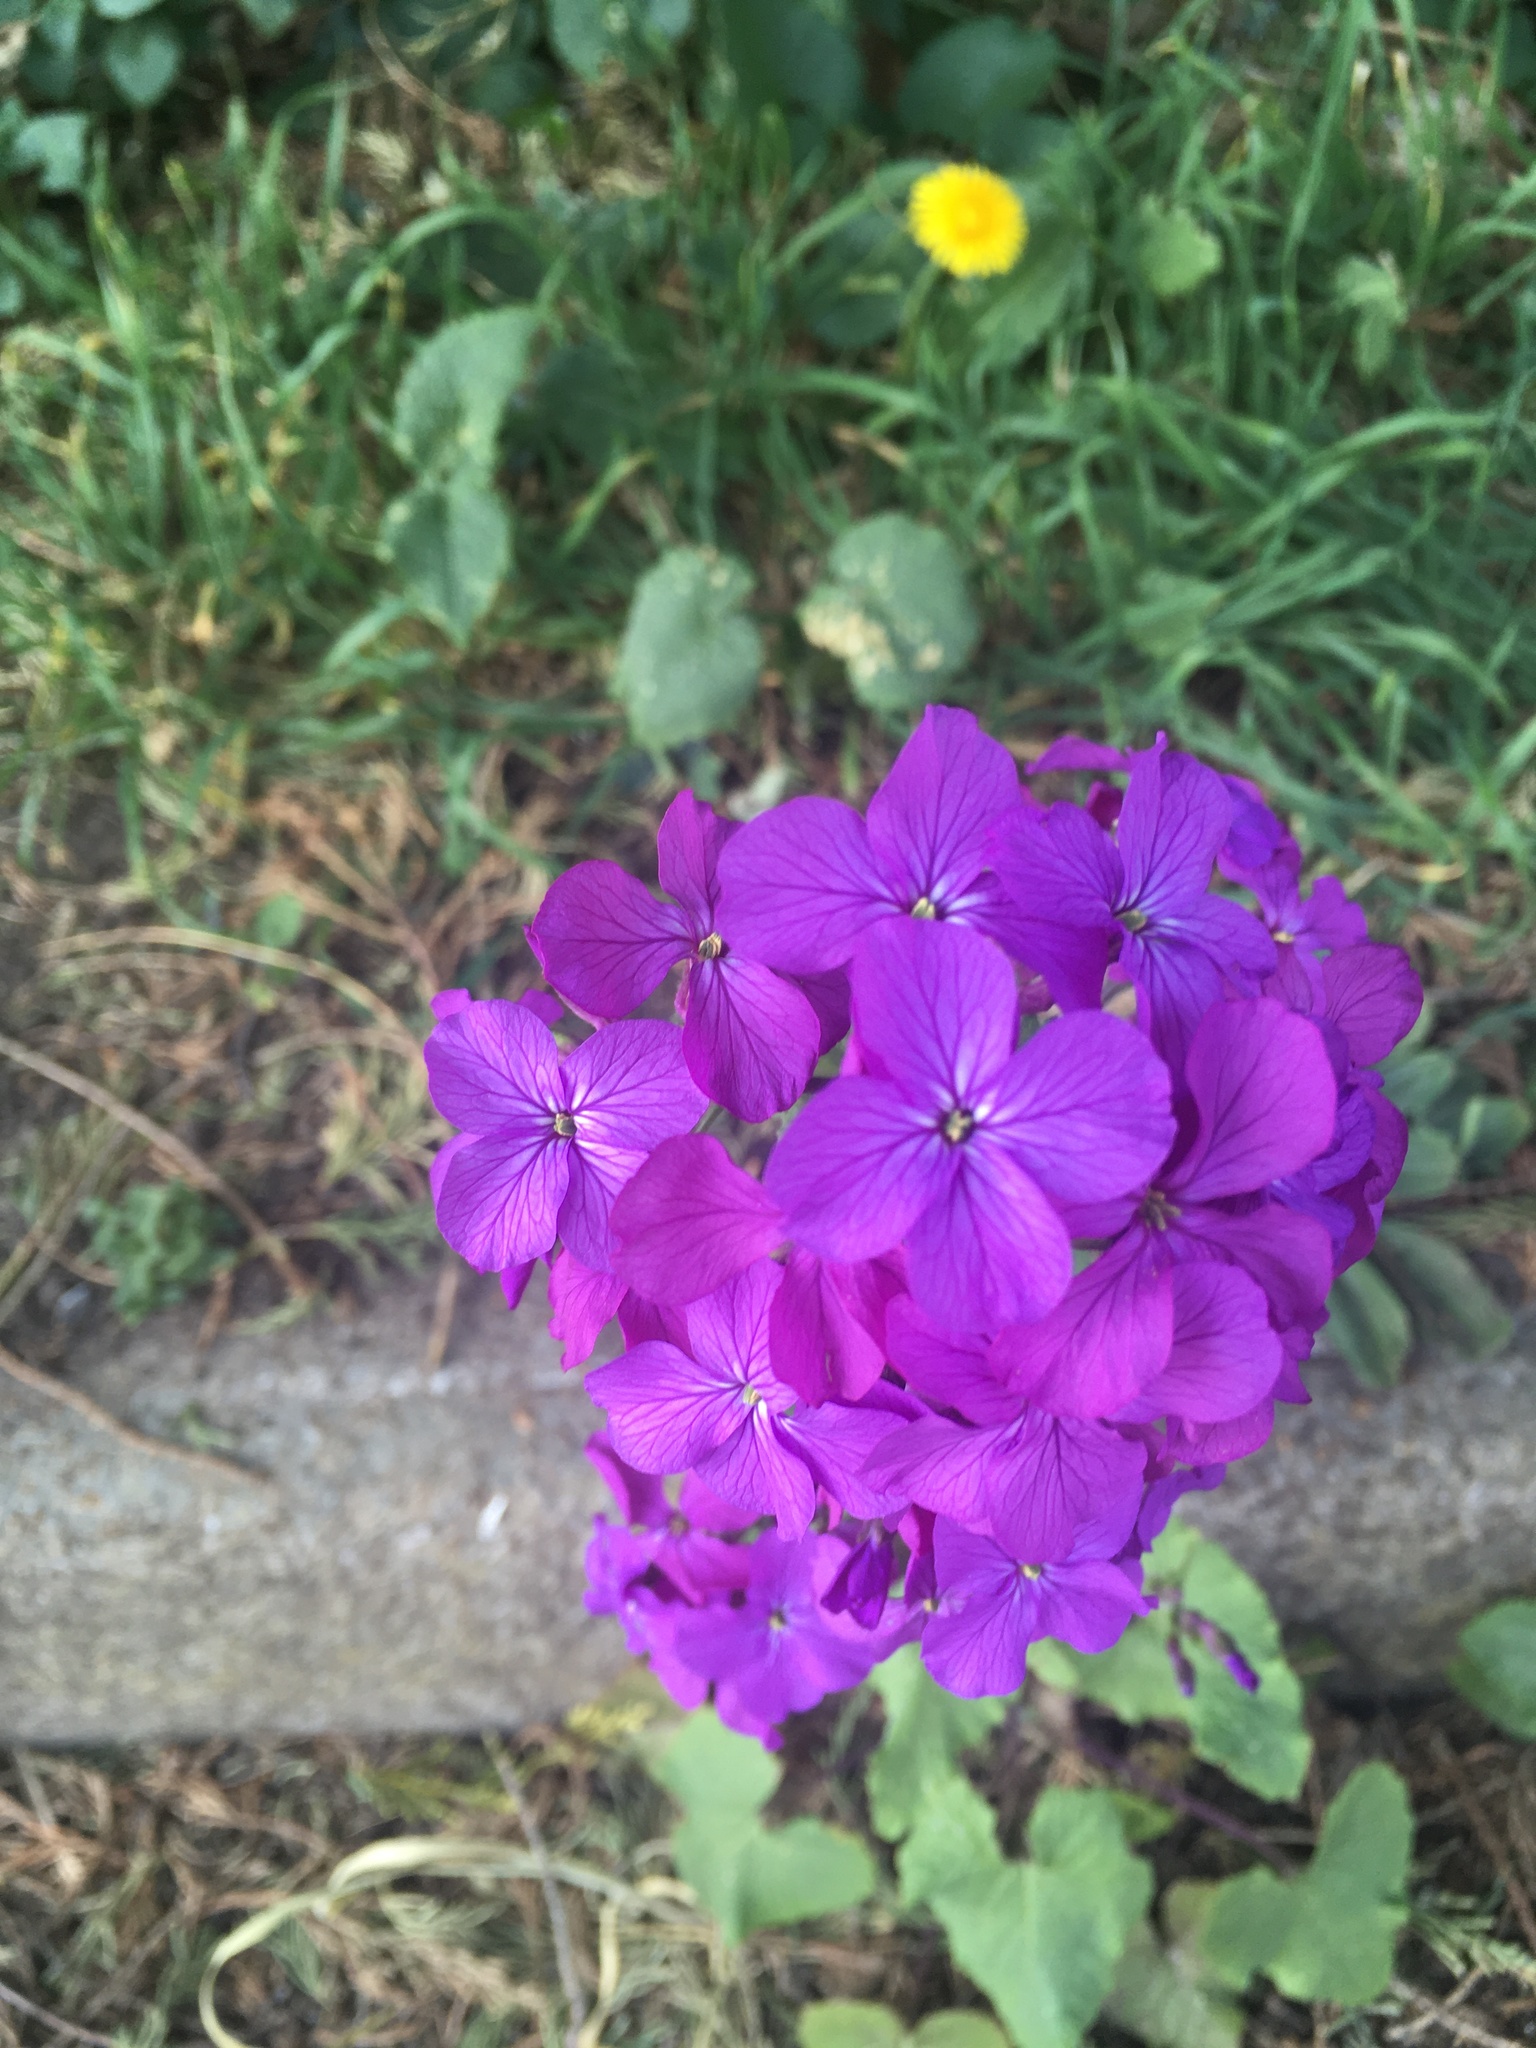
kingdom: Plantae
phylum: Tracheophyta
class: Magnoliopsida
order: Brassicales
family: Brassicaceae
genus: Lunaria
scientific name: Lunaria annua
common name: Honesty
